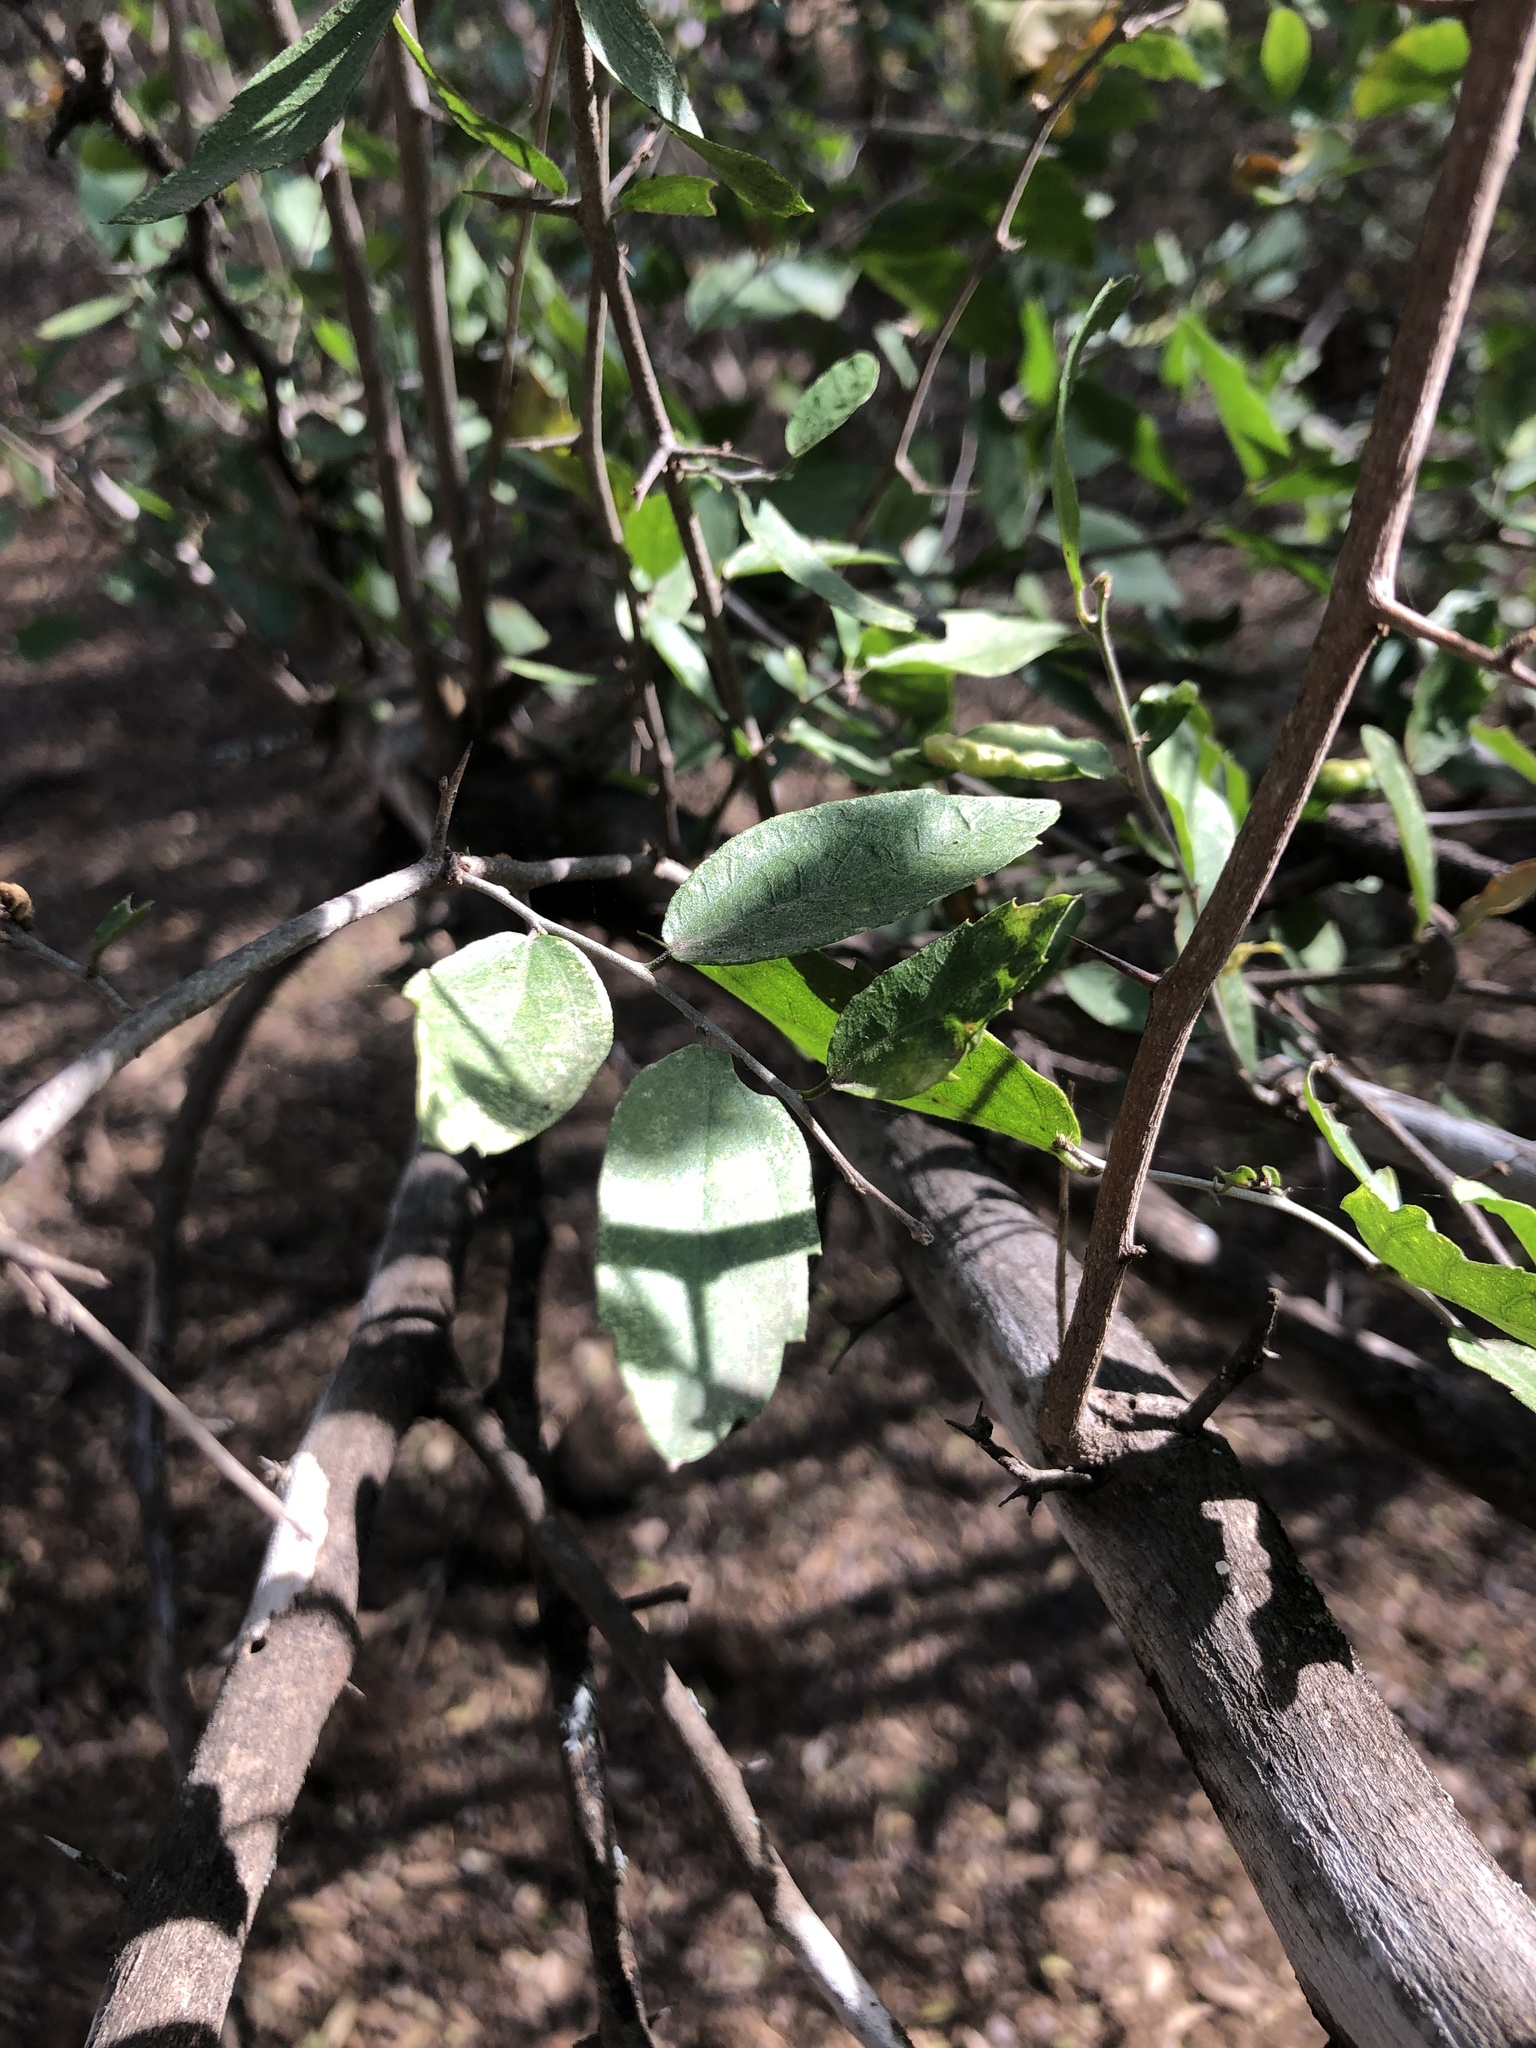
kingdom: Plantae
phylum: Tracheophyta
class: Magnoliopsida
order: Rosales
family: Cannabaceae
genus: Celtis
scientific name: Celtis pallida
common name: Desert hackberry
